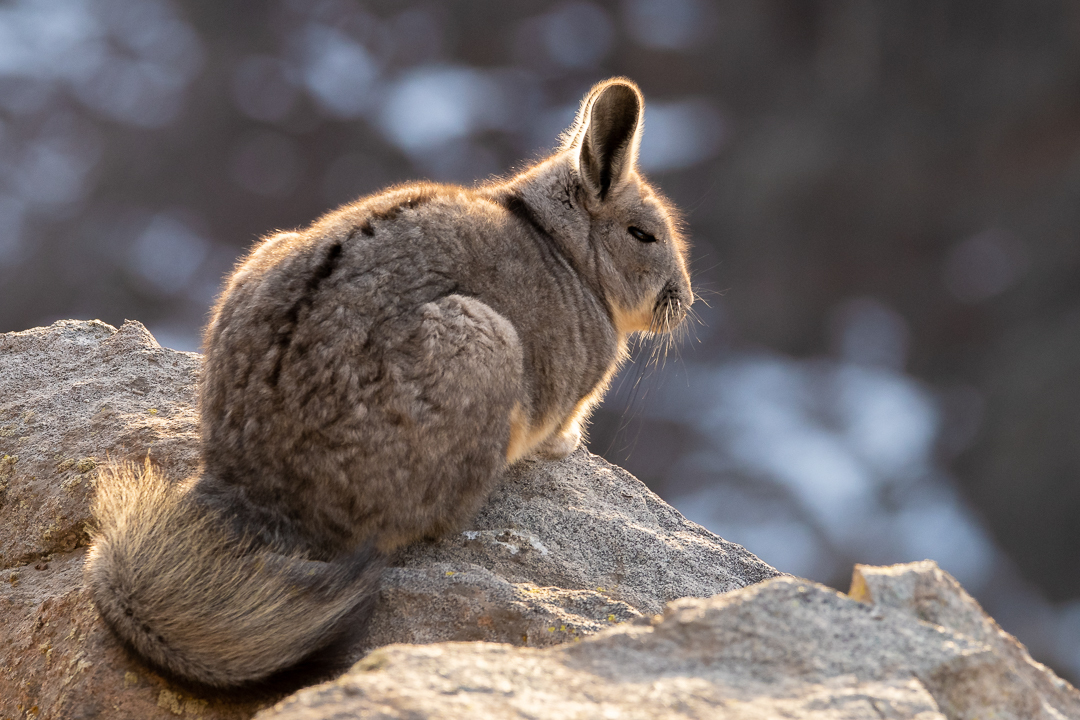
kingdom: Animalia
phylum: Chordata
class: Mammalia
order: Rodentia
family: Chinchillidae
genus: Lagidium
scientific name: Lagidium viscacia
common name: Southern viscacha
